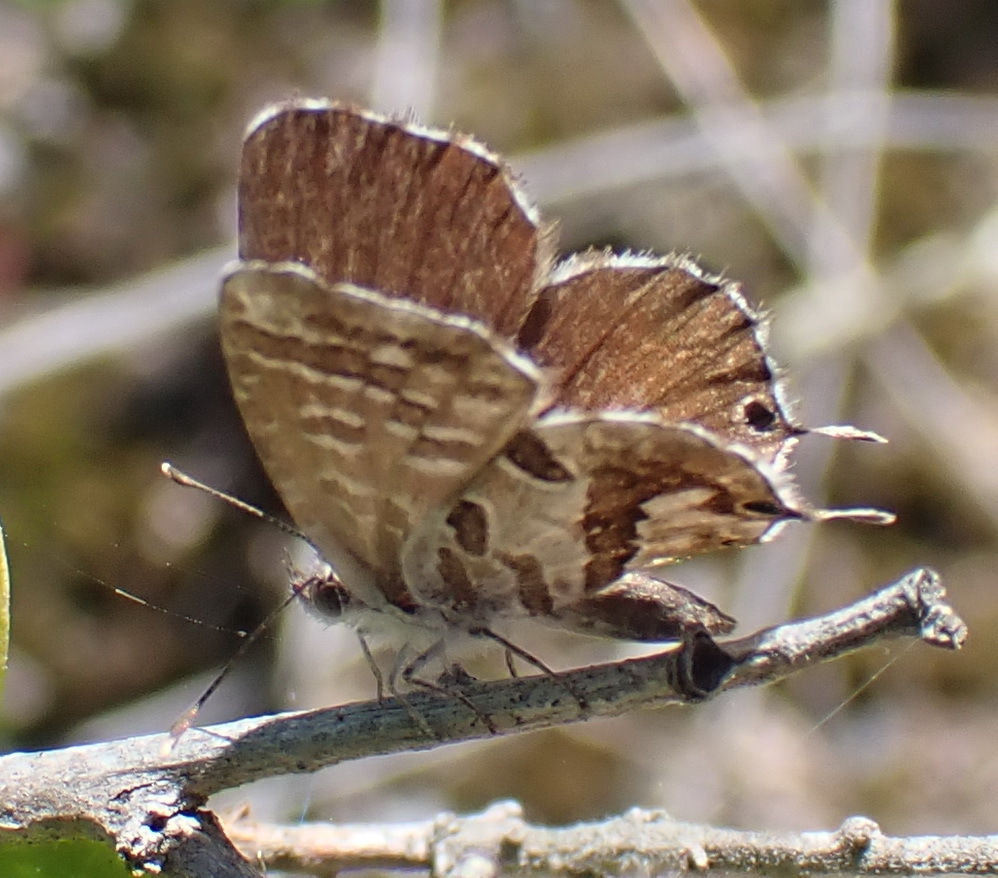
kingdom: Animalia
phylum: Arthropoda
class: Insecta
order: Lepidoptera
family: Lycaenidae
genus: Cacyreus
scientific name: Cacyreus fracta
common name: Water bronze
